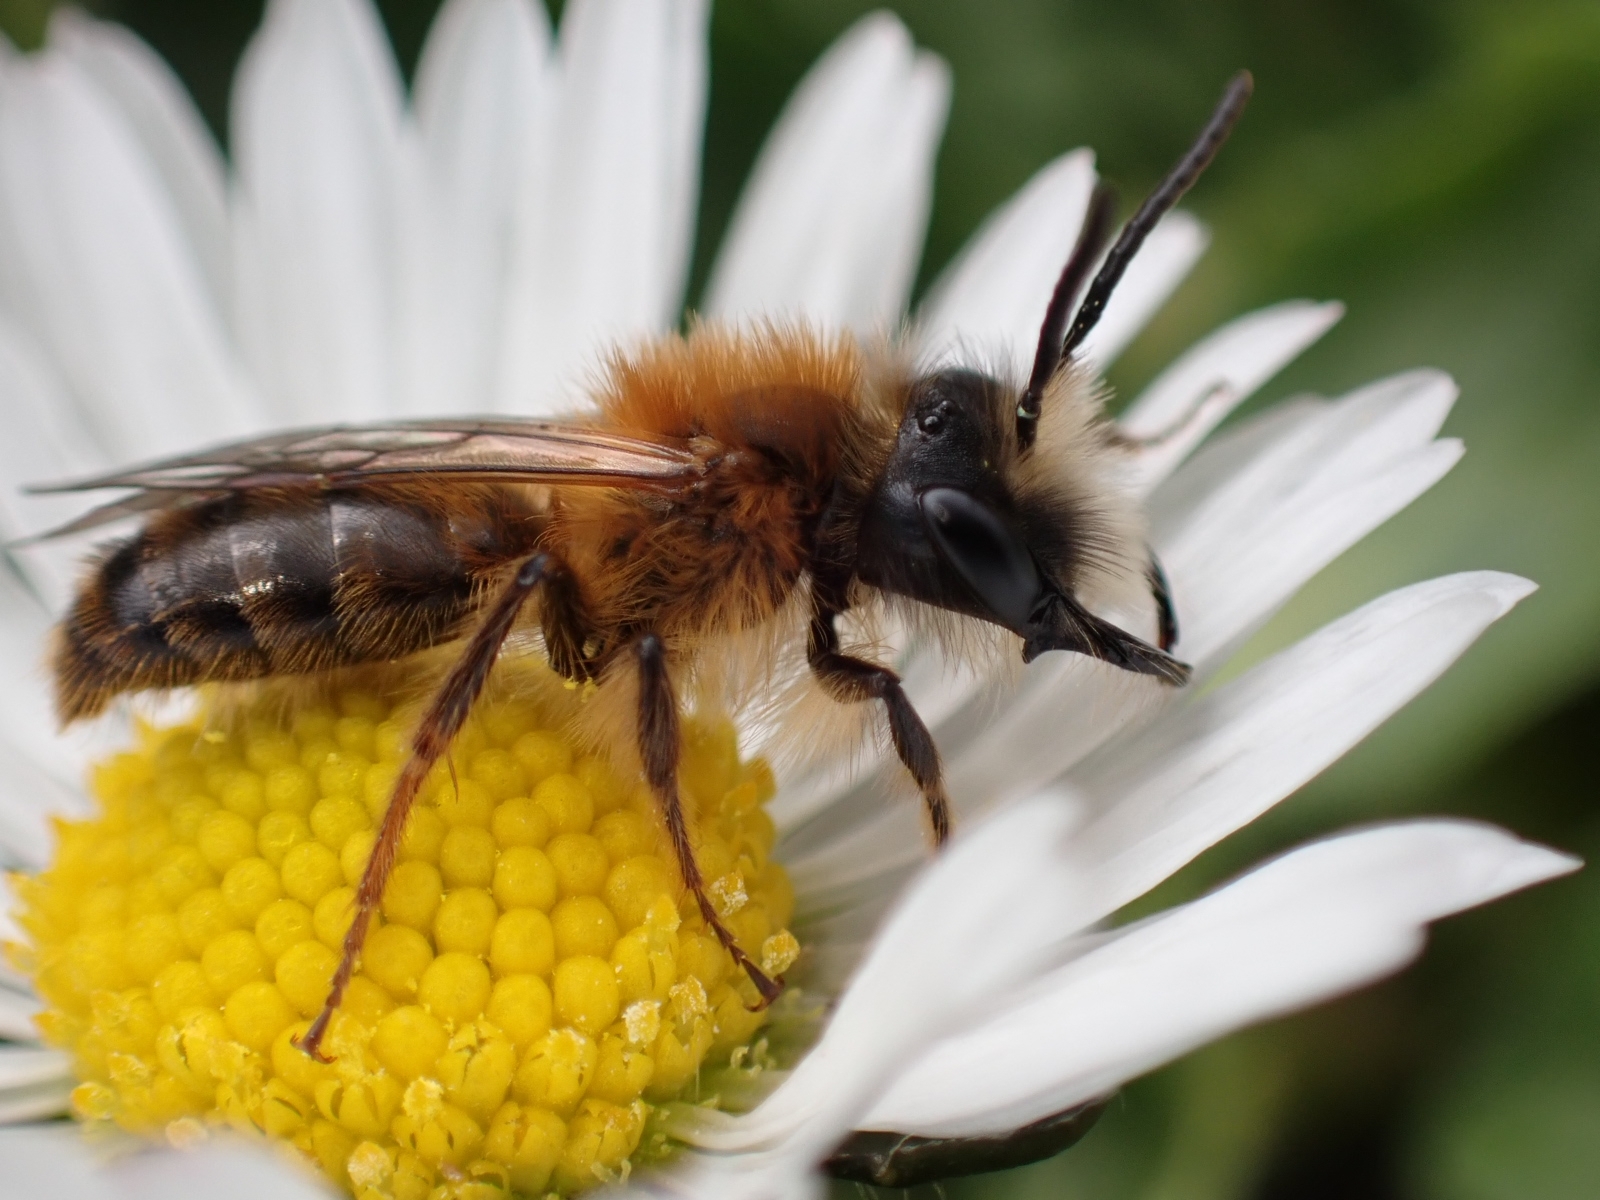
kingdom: Animalia
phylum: Arthropoda
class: Insecta
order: Hymenoptera
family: Andrenidae
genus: Andrena
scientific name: Andrena fulva
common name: Tawny mining bee
